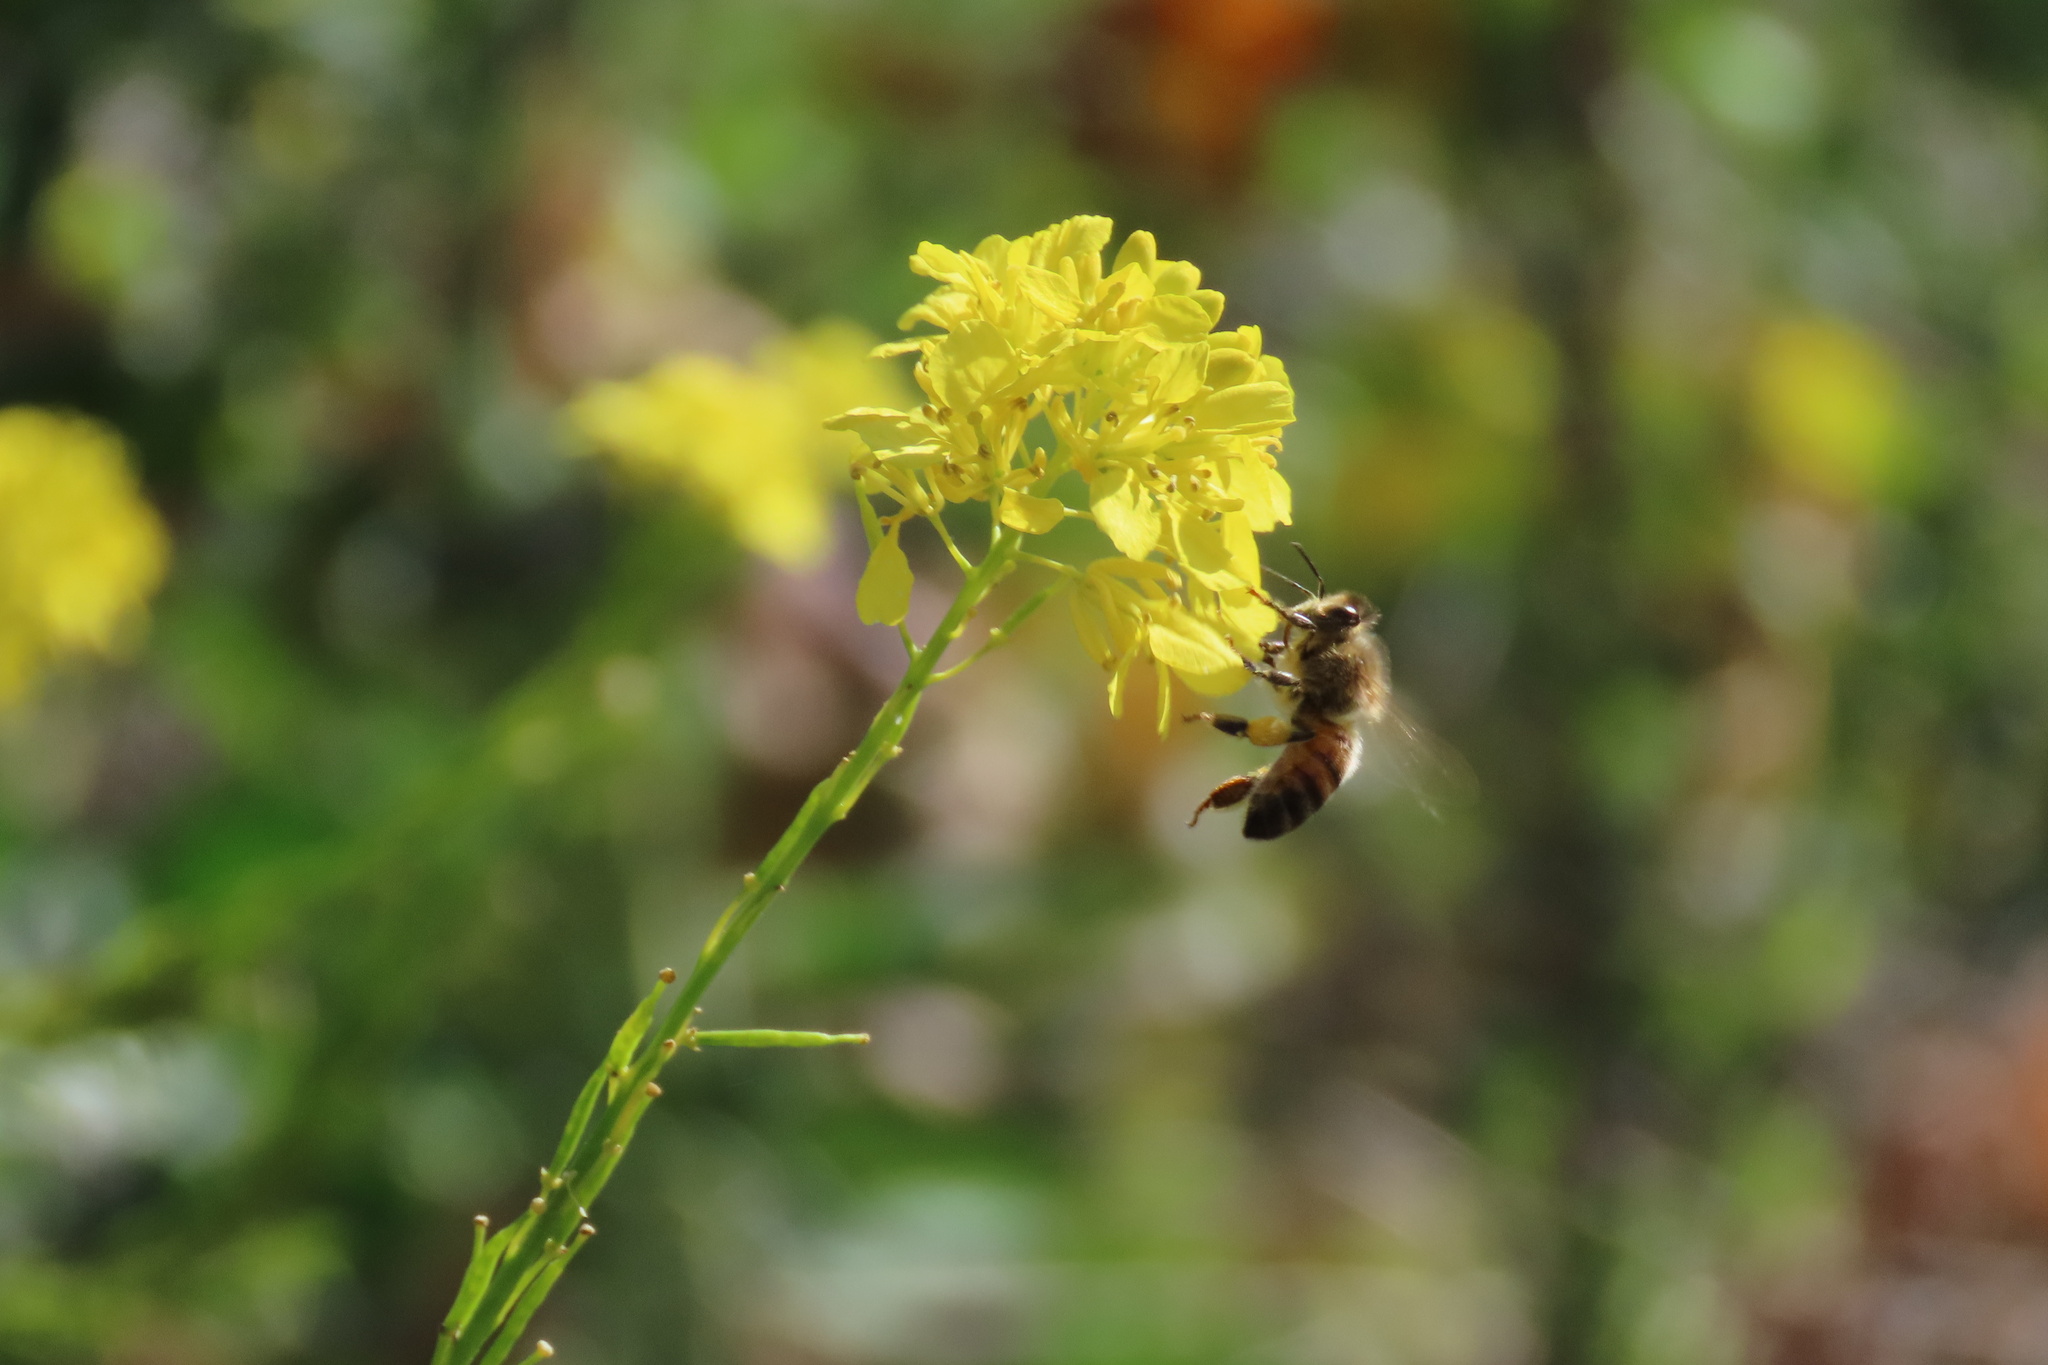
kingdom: Animalia
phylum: Arthropoda
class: Insecta
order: Hymenoptera
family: Apidae
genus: Apis
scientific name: Apis mellifera
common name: Honey bee
